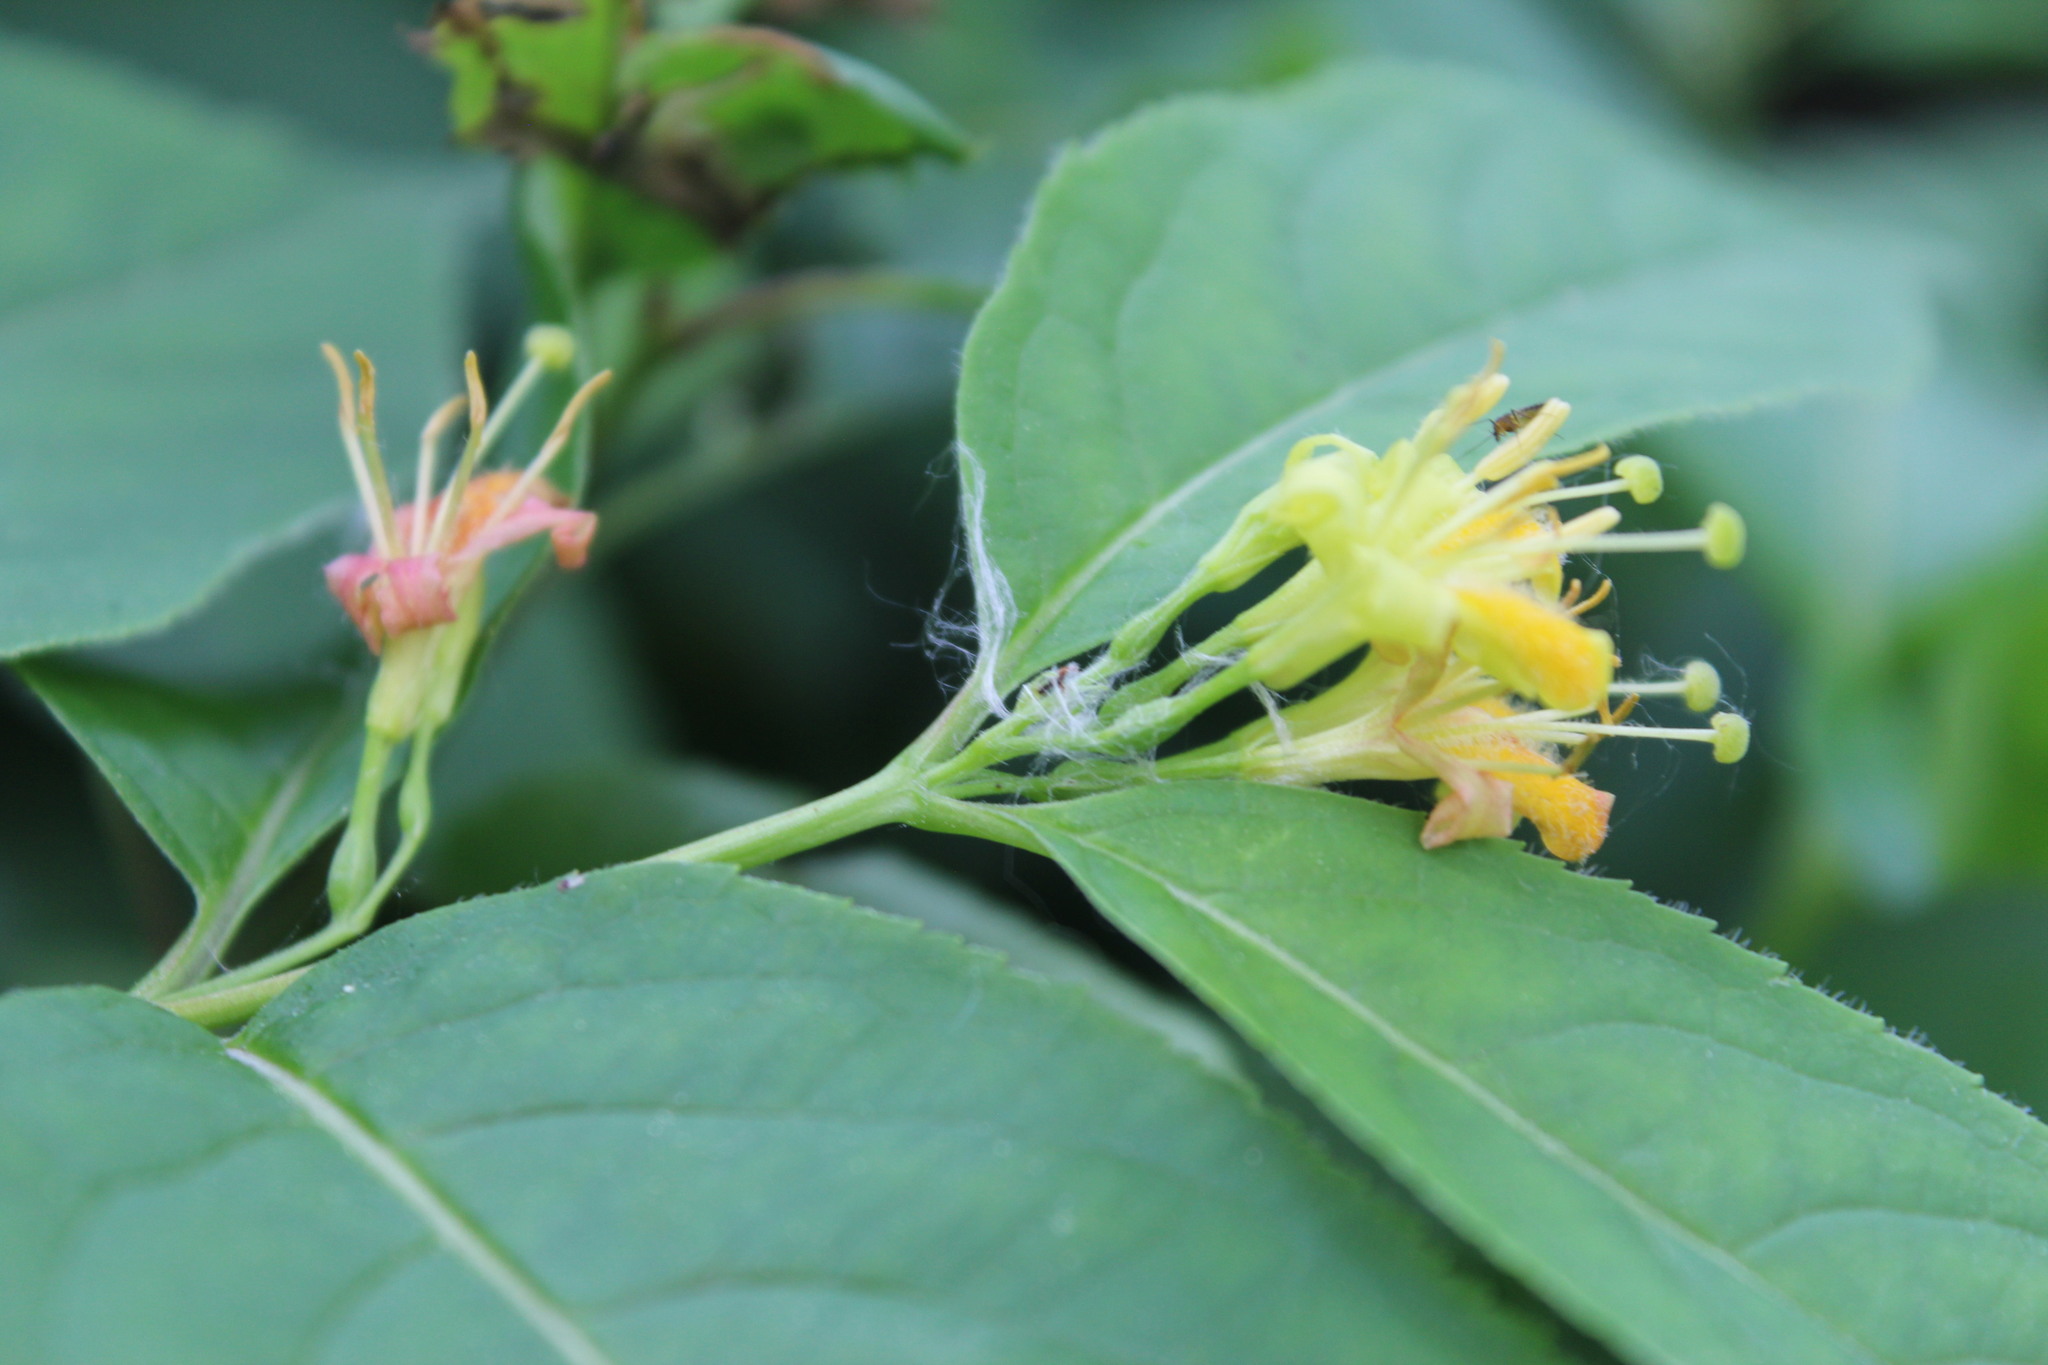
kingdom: Plantae
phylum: Tracheophyta
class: Magnoliopsida
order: Dipsacales
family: Caprifoliaceae
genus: Diervilla
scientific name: Diervilla lonicera
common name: Bush-honeysuckle
